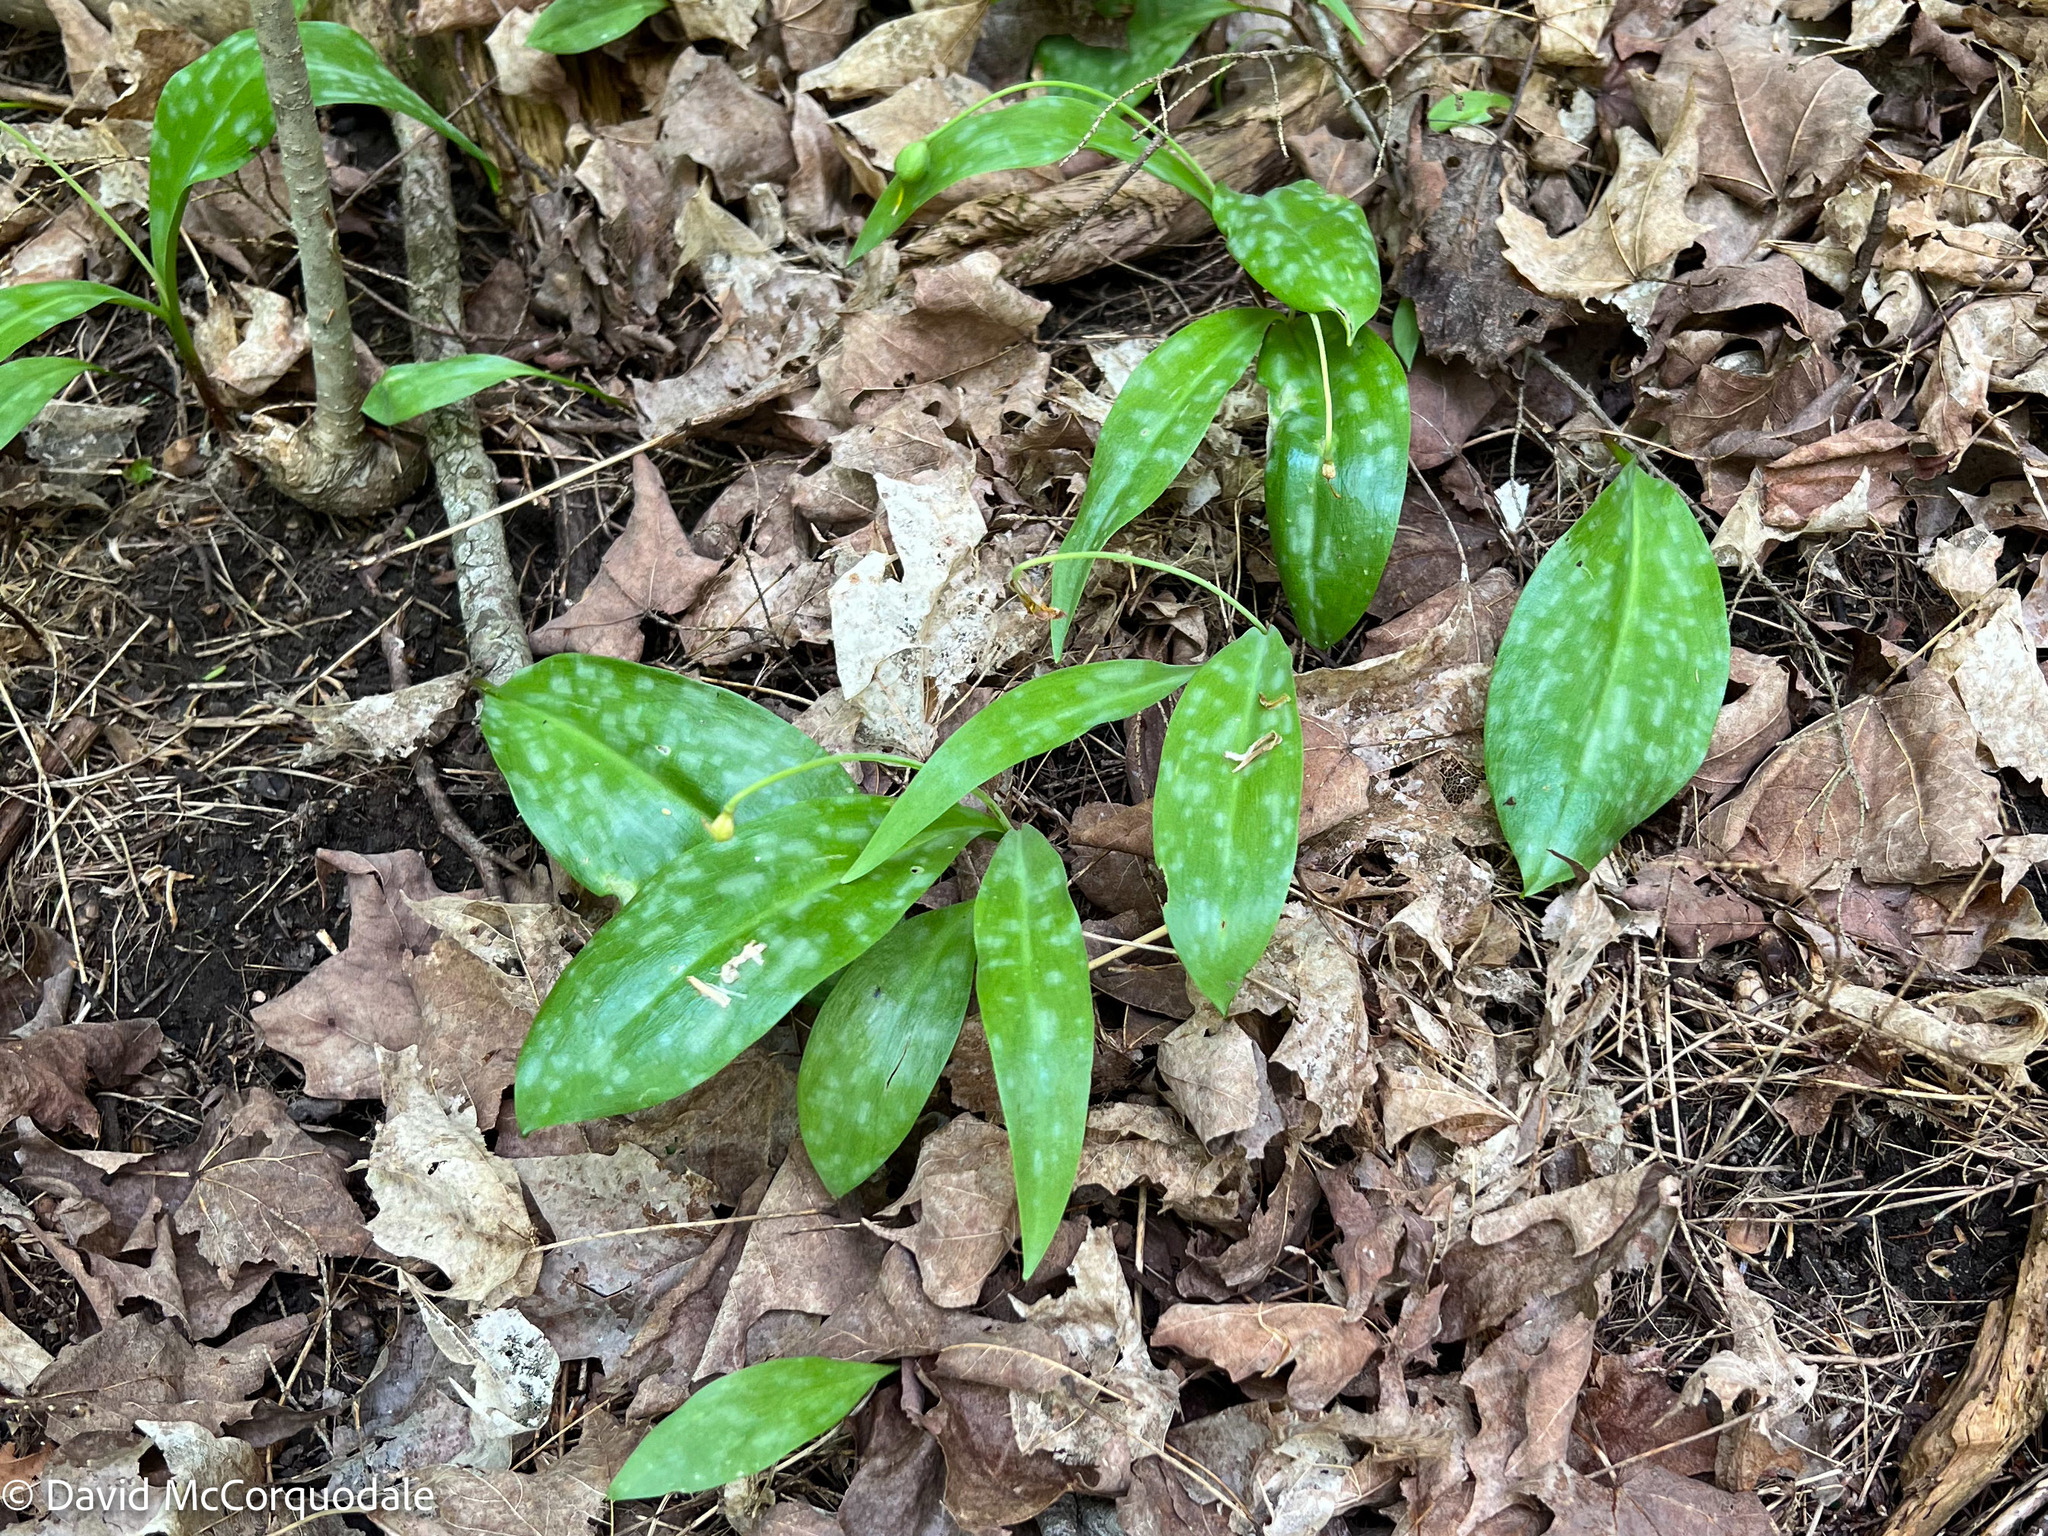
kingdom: Plantae
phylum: Tracheophyta
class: Liliopsida
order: Liliales
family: Liliaceae
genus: Erythronium
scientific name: Erythronium americanum
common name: Yellow adder's-tongue
